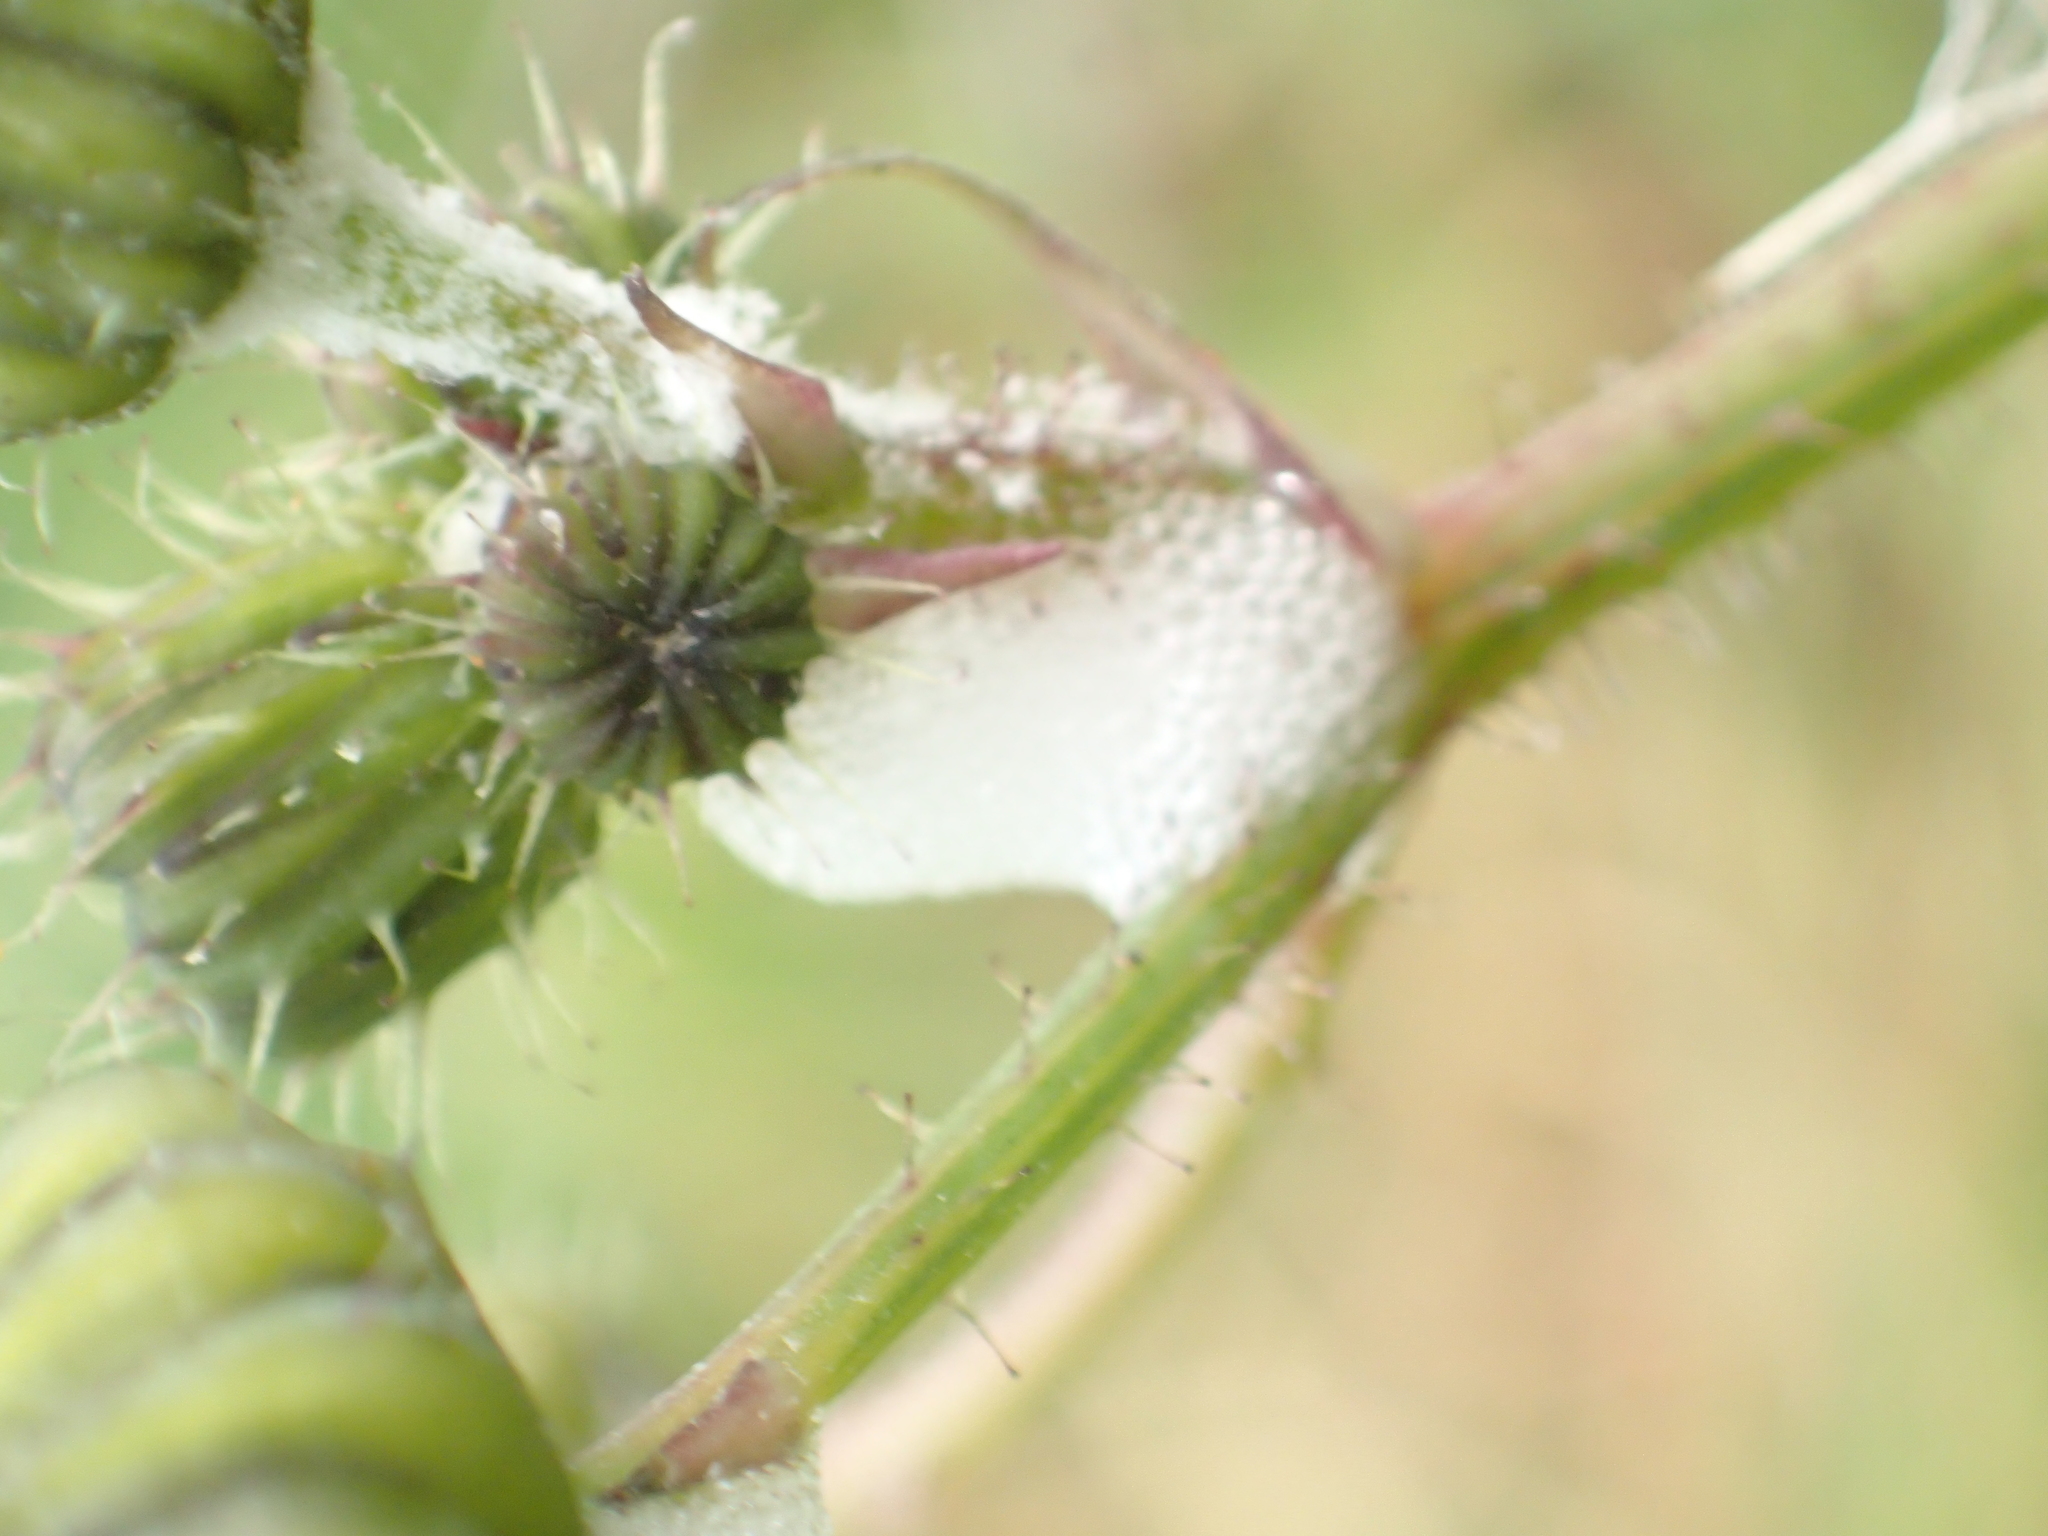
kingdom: Plantae
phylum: Tracheophyta
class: Magnoliopsida
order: Asterales
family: Asteraceae
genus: Sonchus
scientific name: Sonchus oleraceus
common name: Common sowthistle
